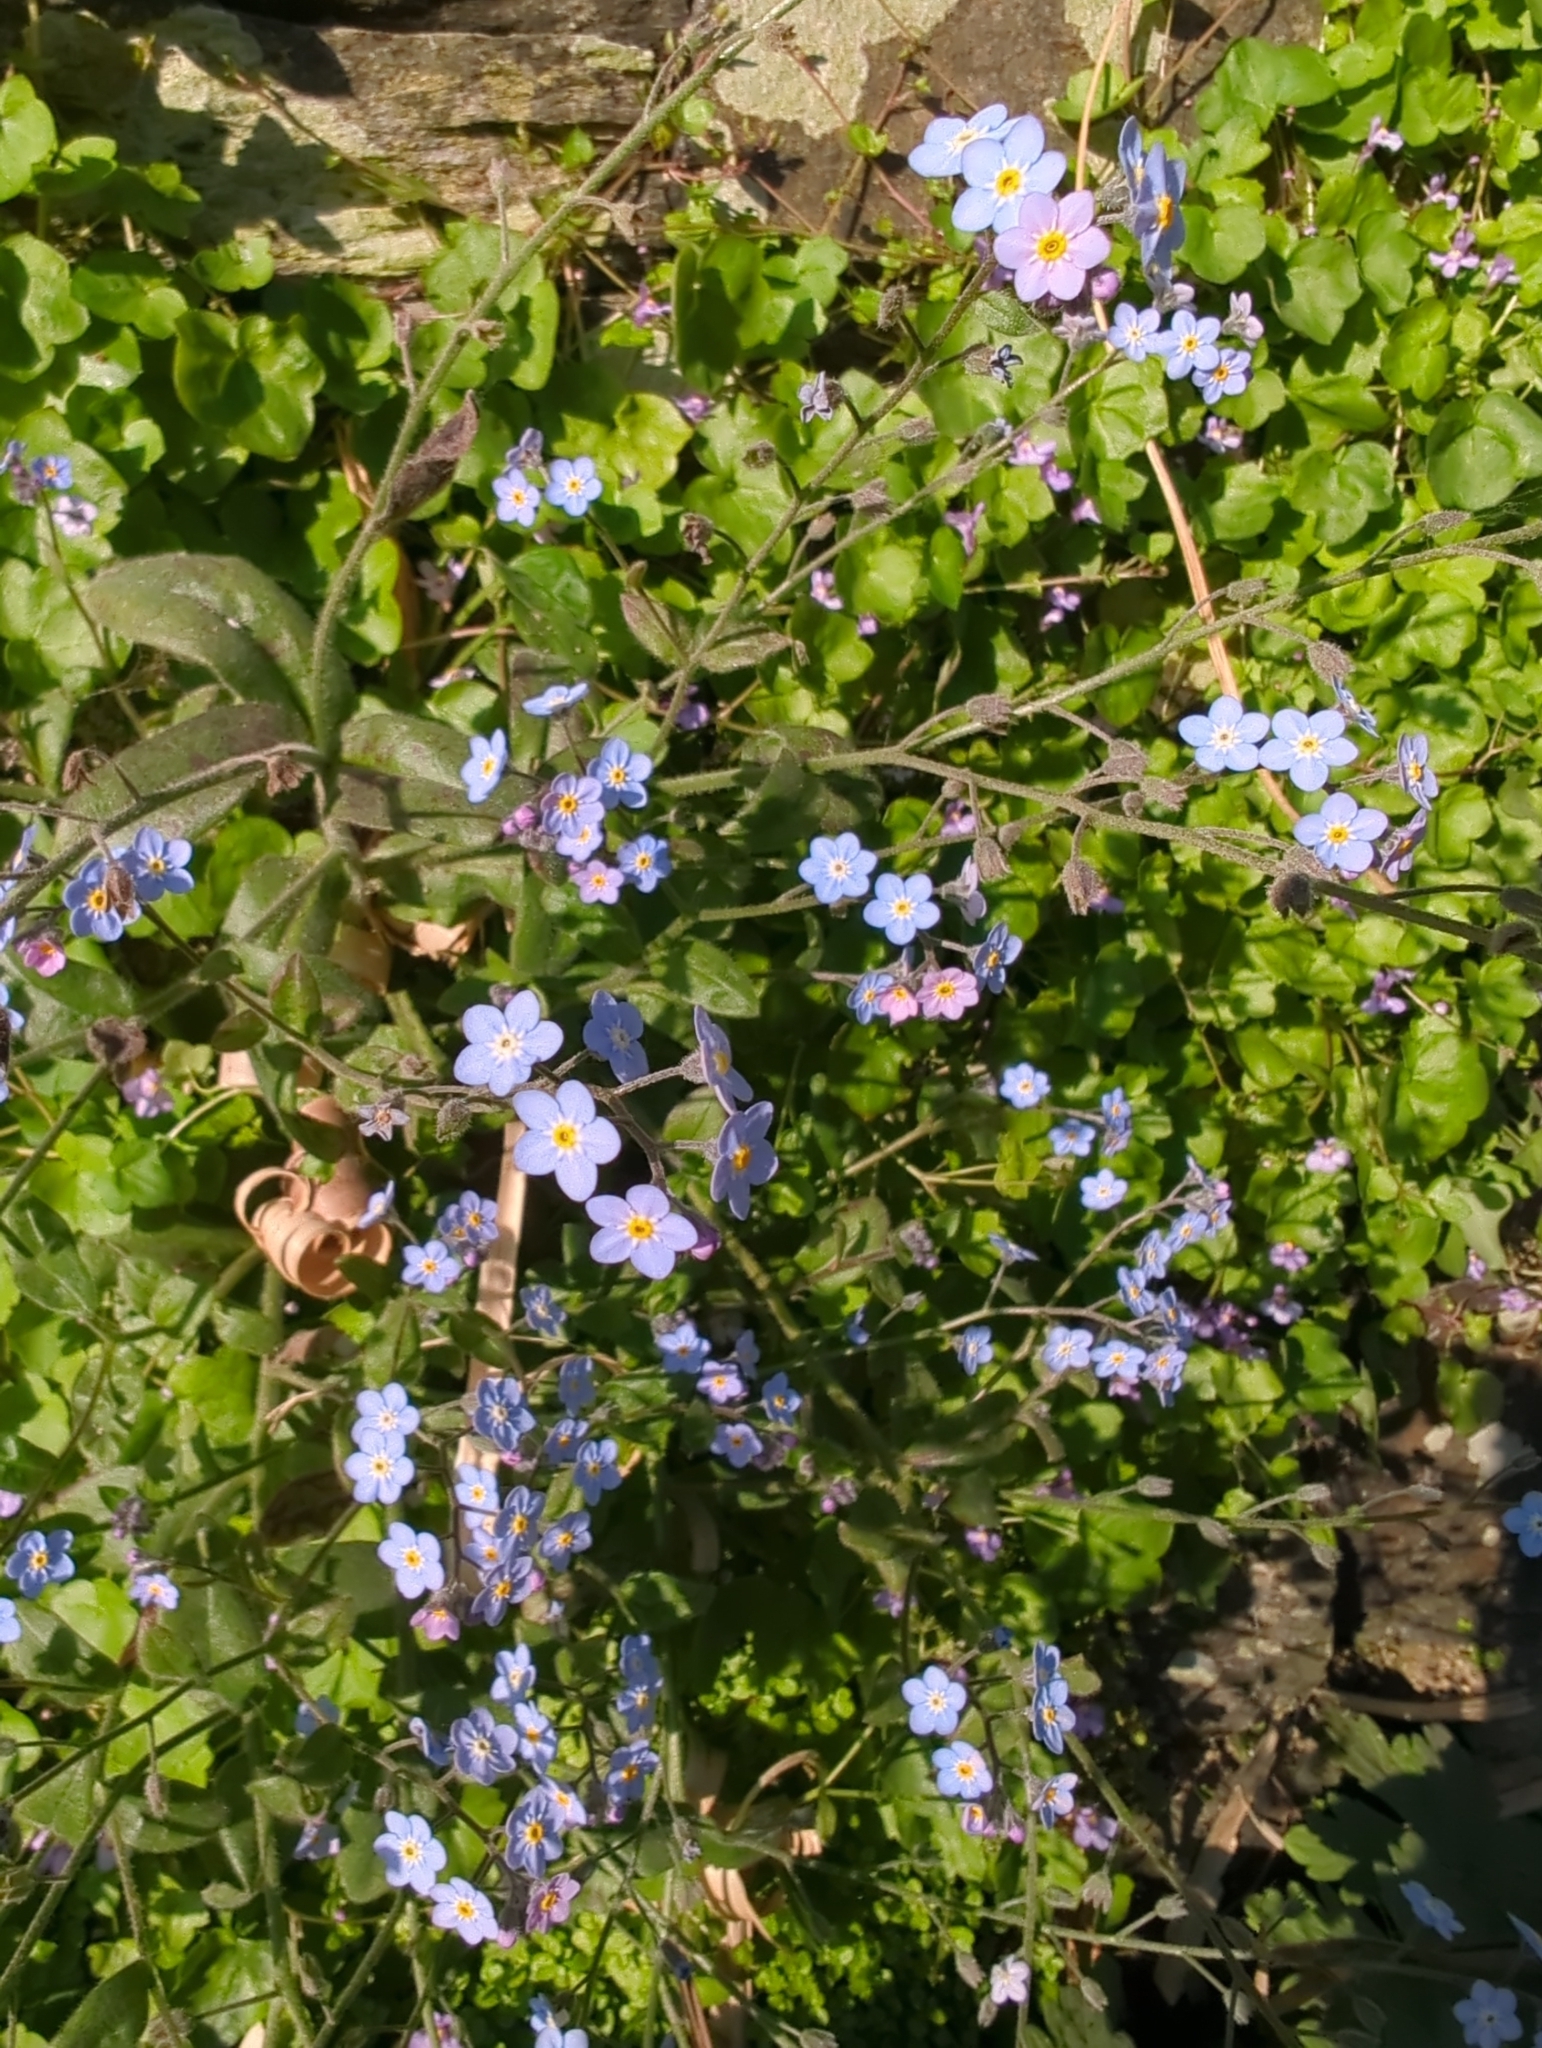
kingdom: Plantae
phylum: Tracheophyta
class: Magnoliopsida
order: Boraginales
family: Boraginaceae
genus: Myosotis
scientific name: Myosotis sylvatica
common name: Wood forget-me-not
